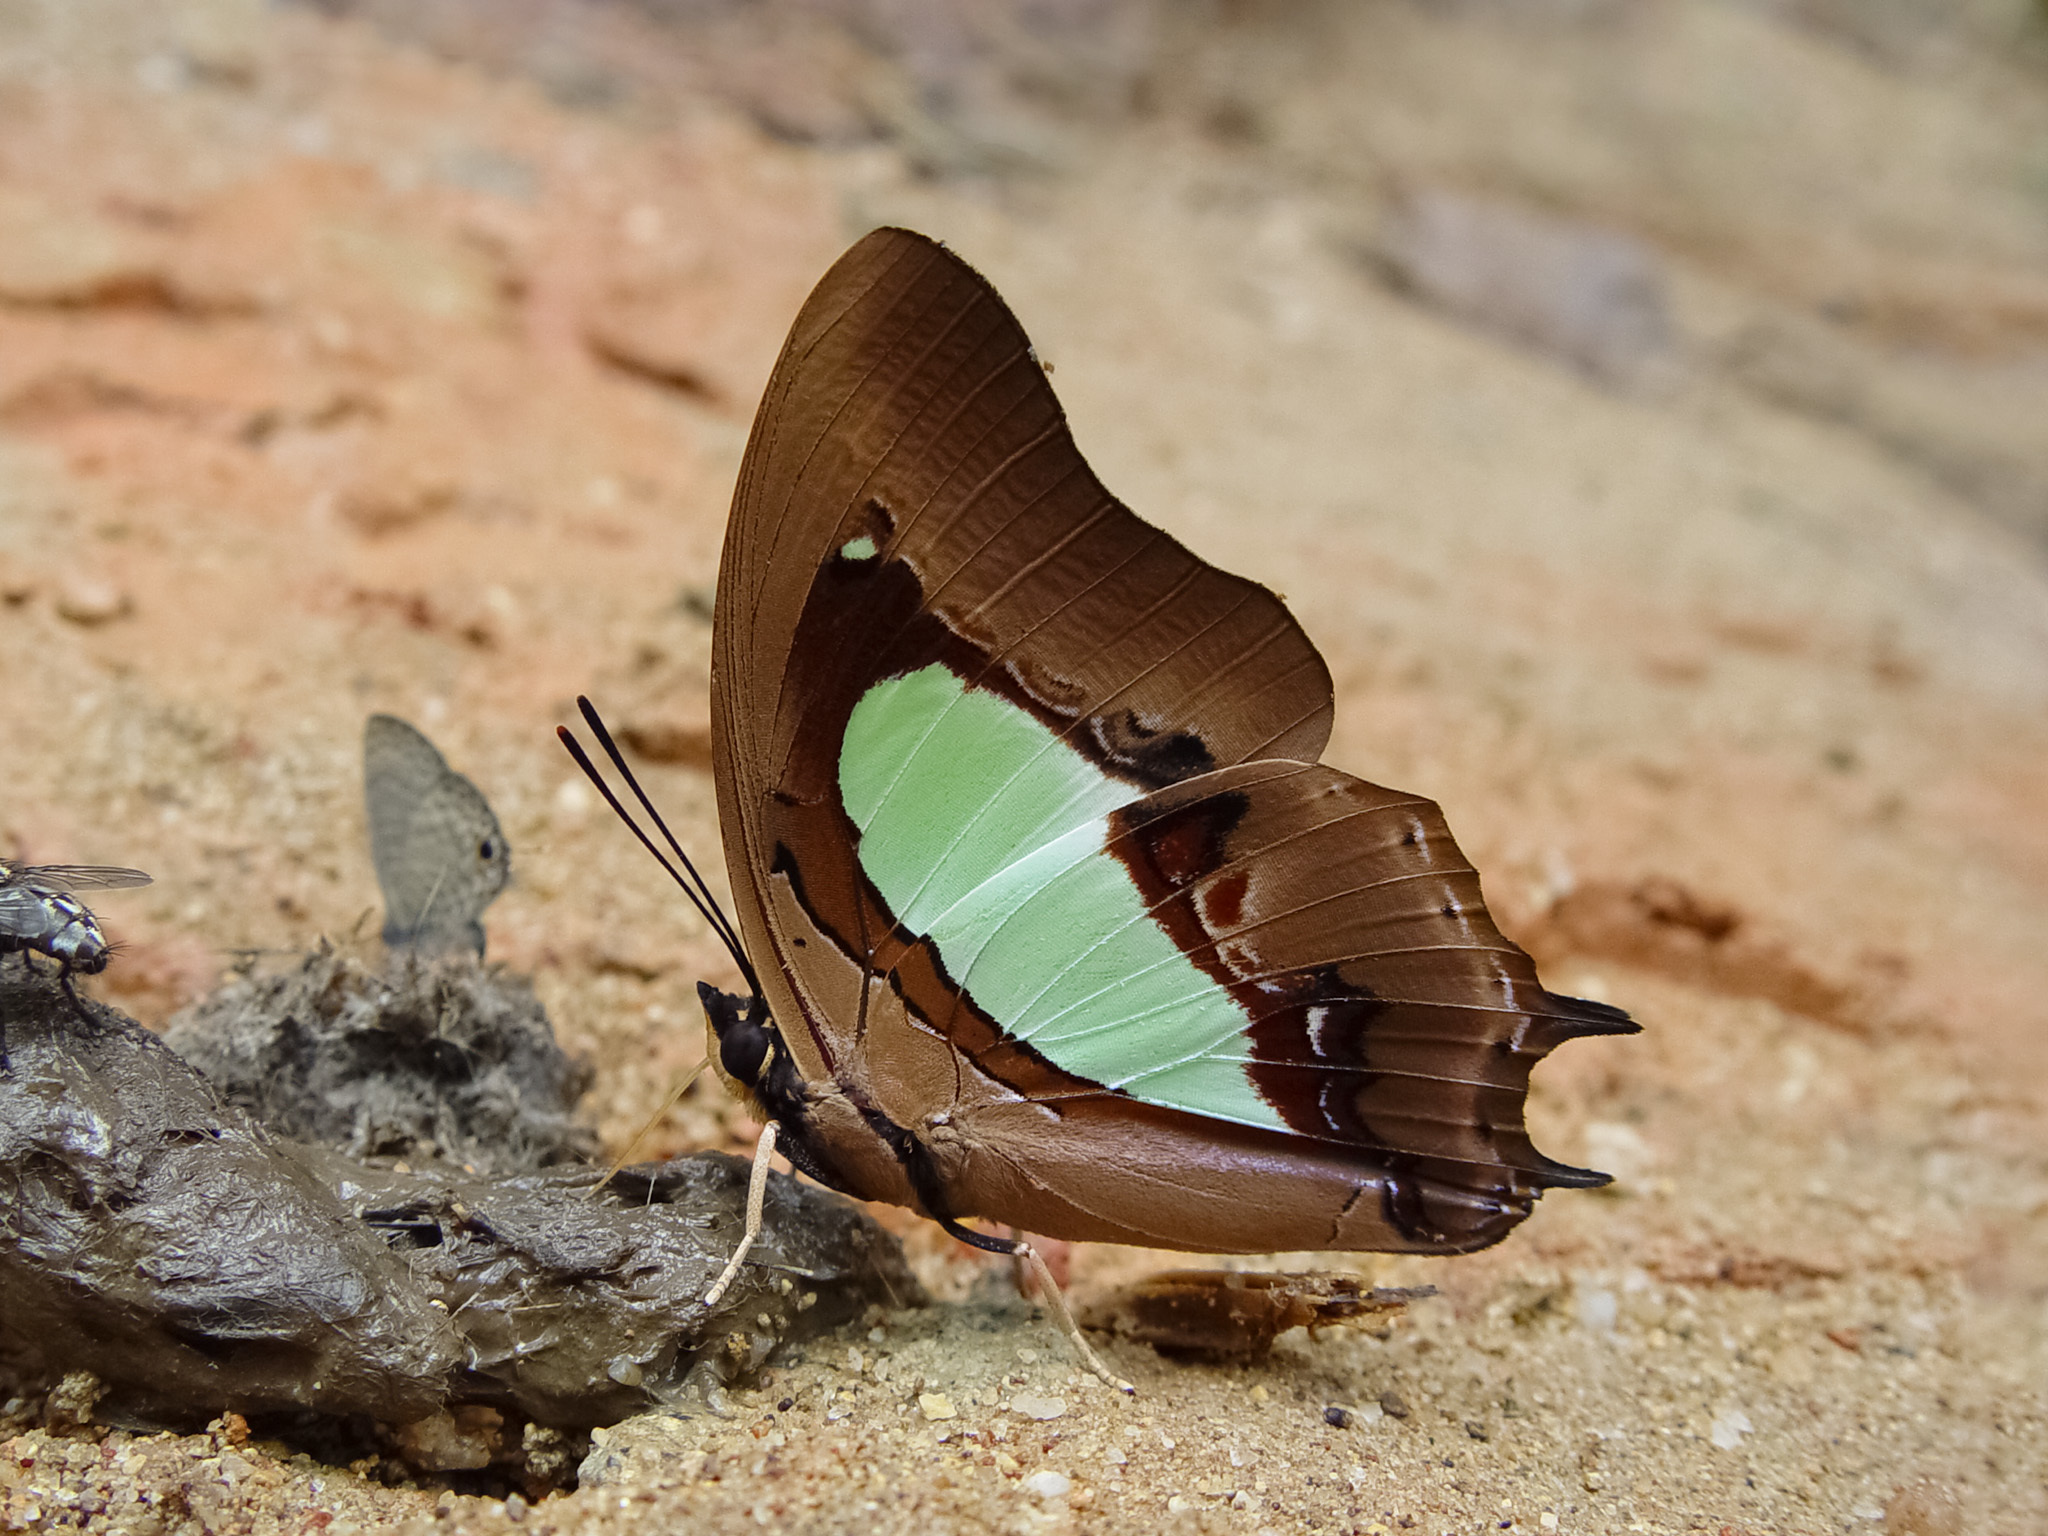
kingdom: Animalia
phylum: Arthropoda
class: Insecta
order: Lepidoptera
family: Nymphalidae
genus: Polyura
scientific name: Polyura hebe
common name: Plain nawab
